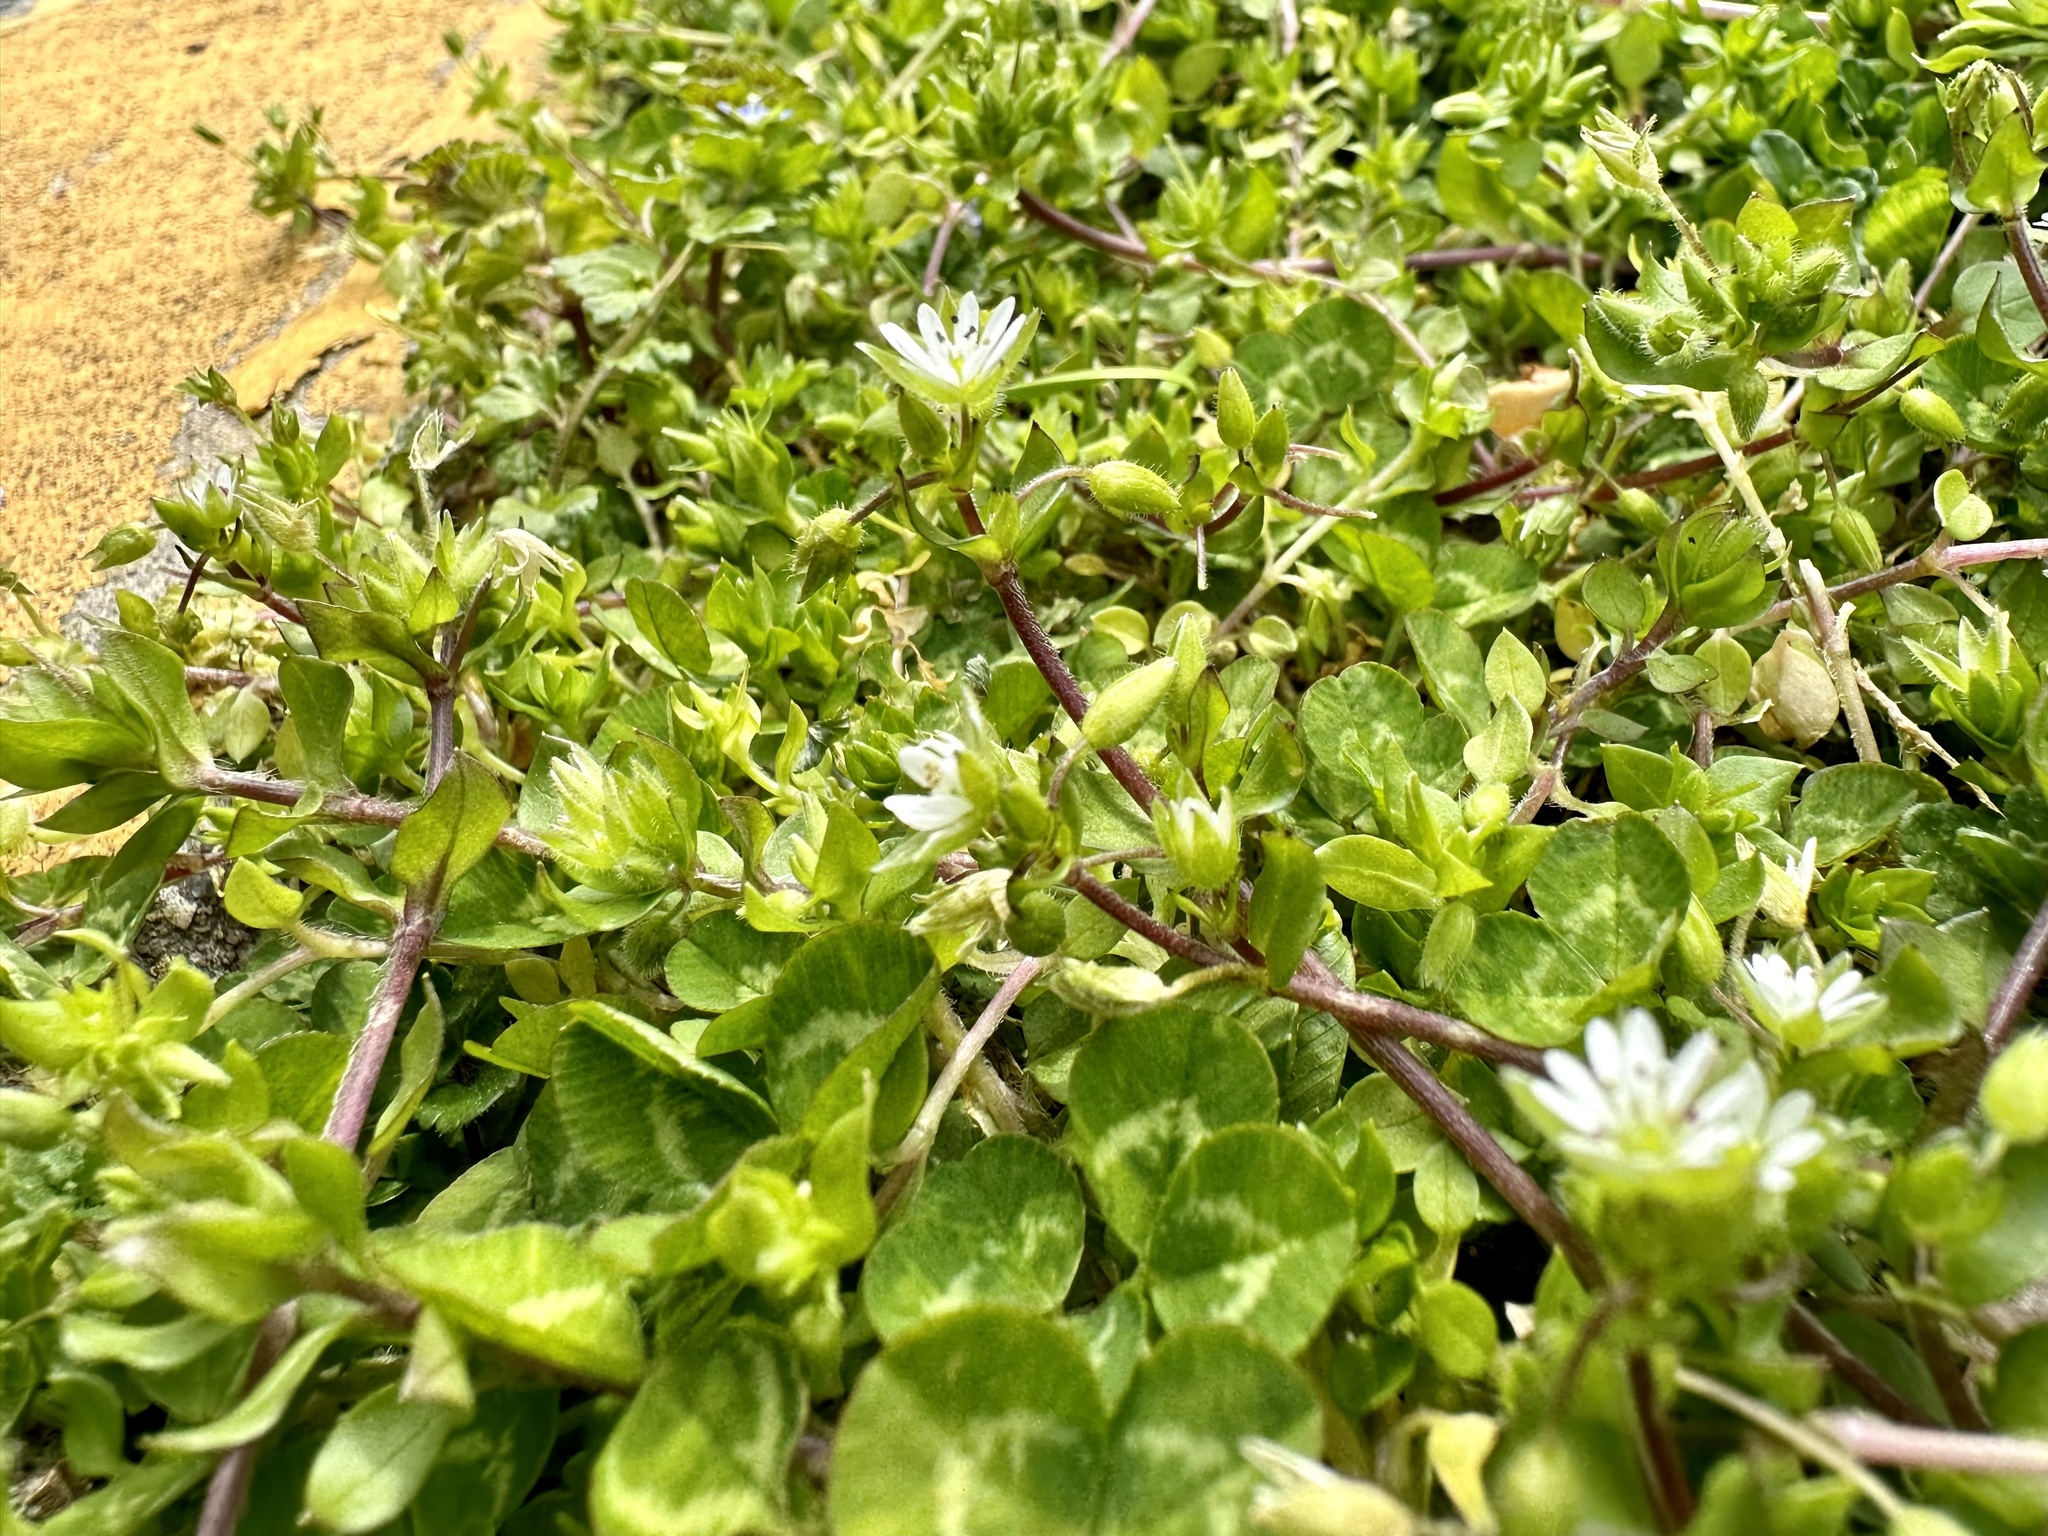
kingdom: Plantae
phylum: Tracheophyta
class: Magnoliopsida
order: Caryophyllales
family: Caryophyllaceae
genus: Stellaria
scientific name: Stellaria media
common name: Common chickweed
